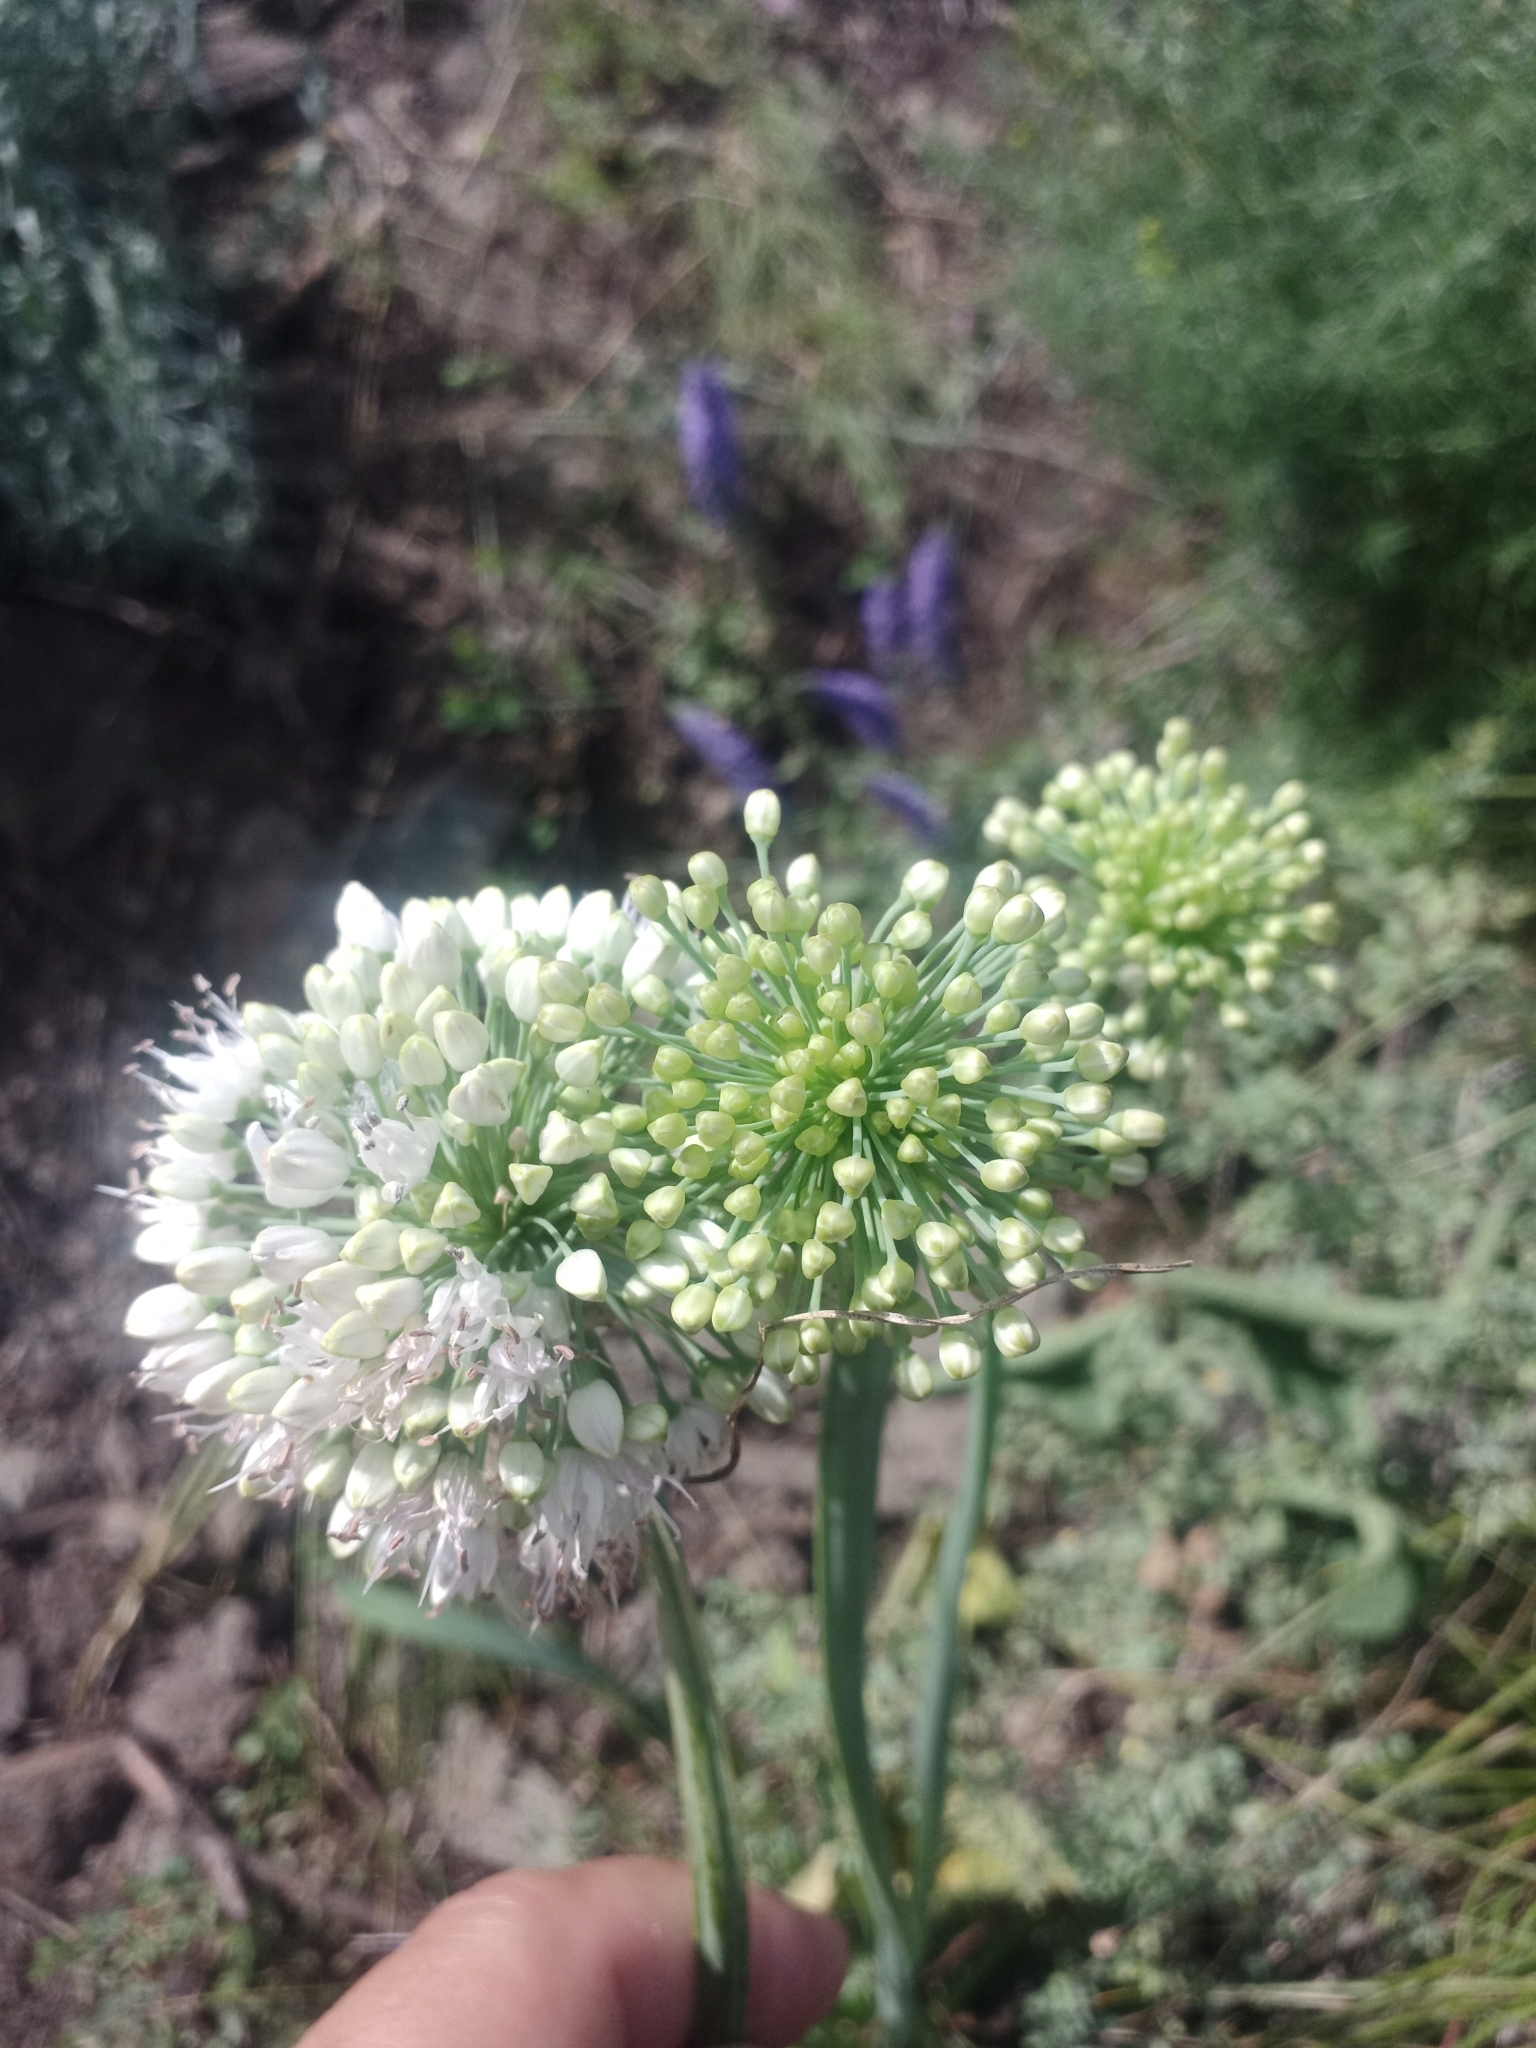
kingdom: Plantae
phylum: Tracheophyta
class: Liliopsida
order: Asparagales
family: Amaryllidaceae
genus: Allium
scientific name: Allium nutans
